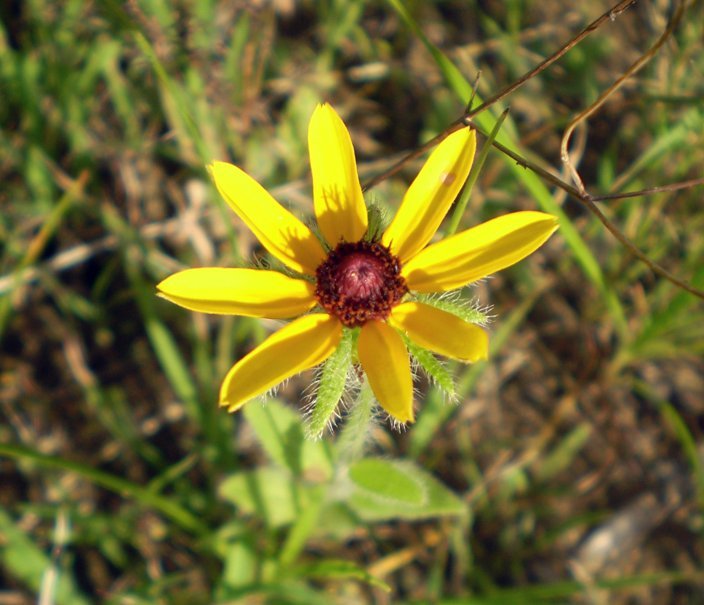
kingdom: Plantae
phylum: Tracheophyta
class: Magnoliopsida
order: Asterales
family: Asteraceae
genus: Rudbeckia
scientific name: Rudbeckia hirta
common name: Black-eyed-susan
